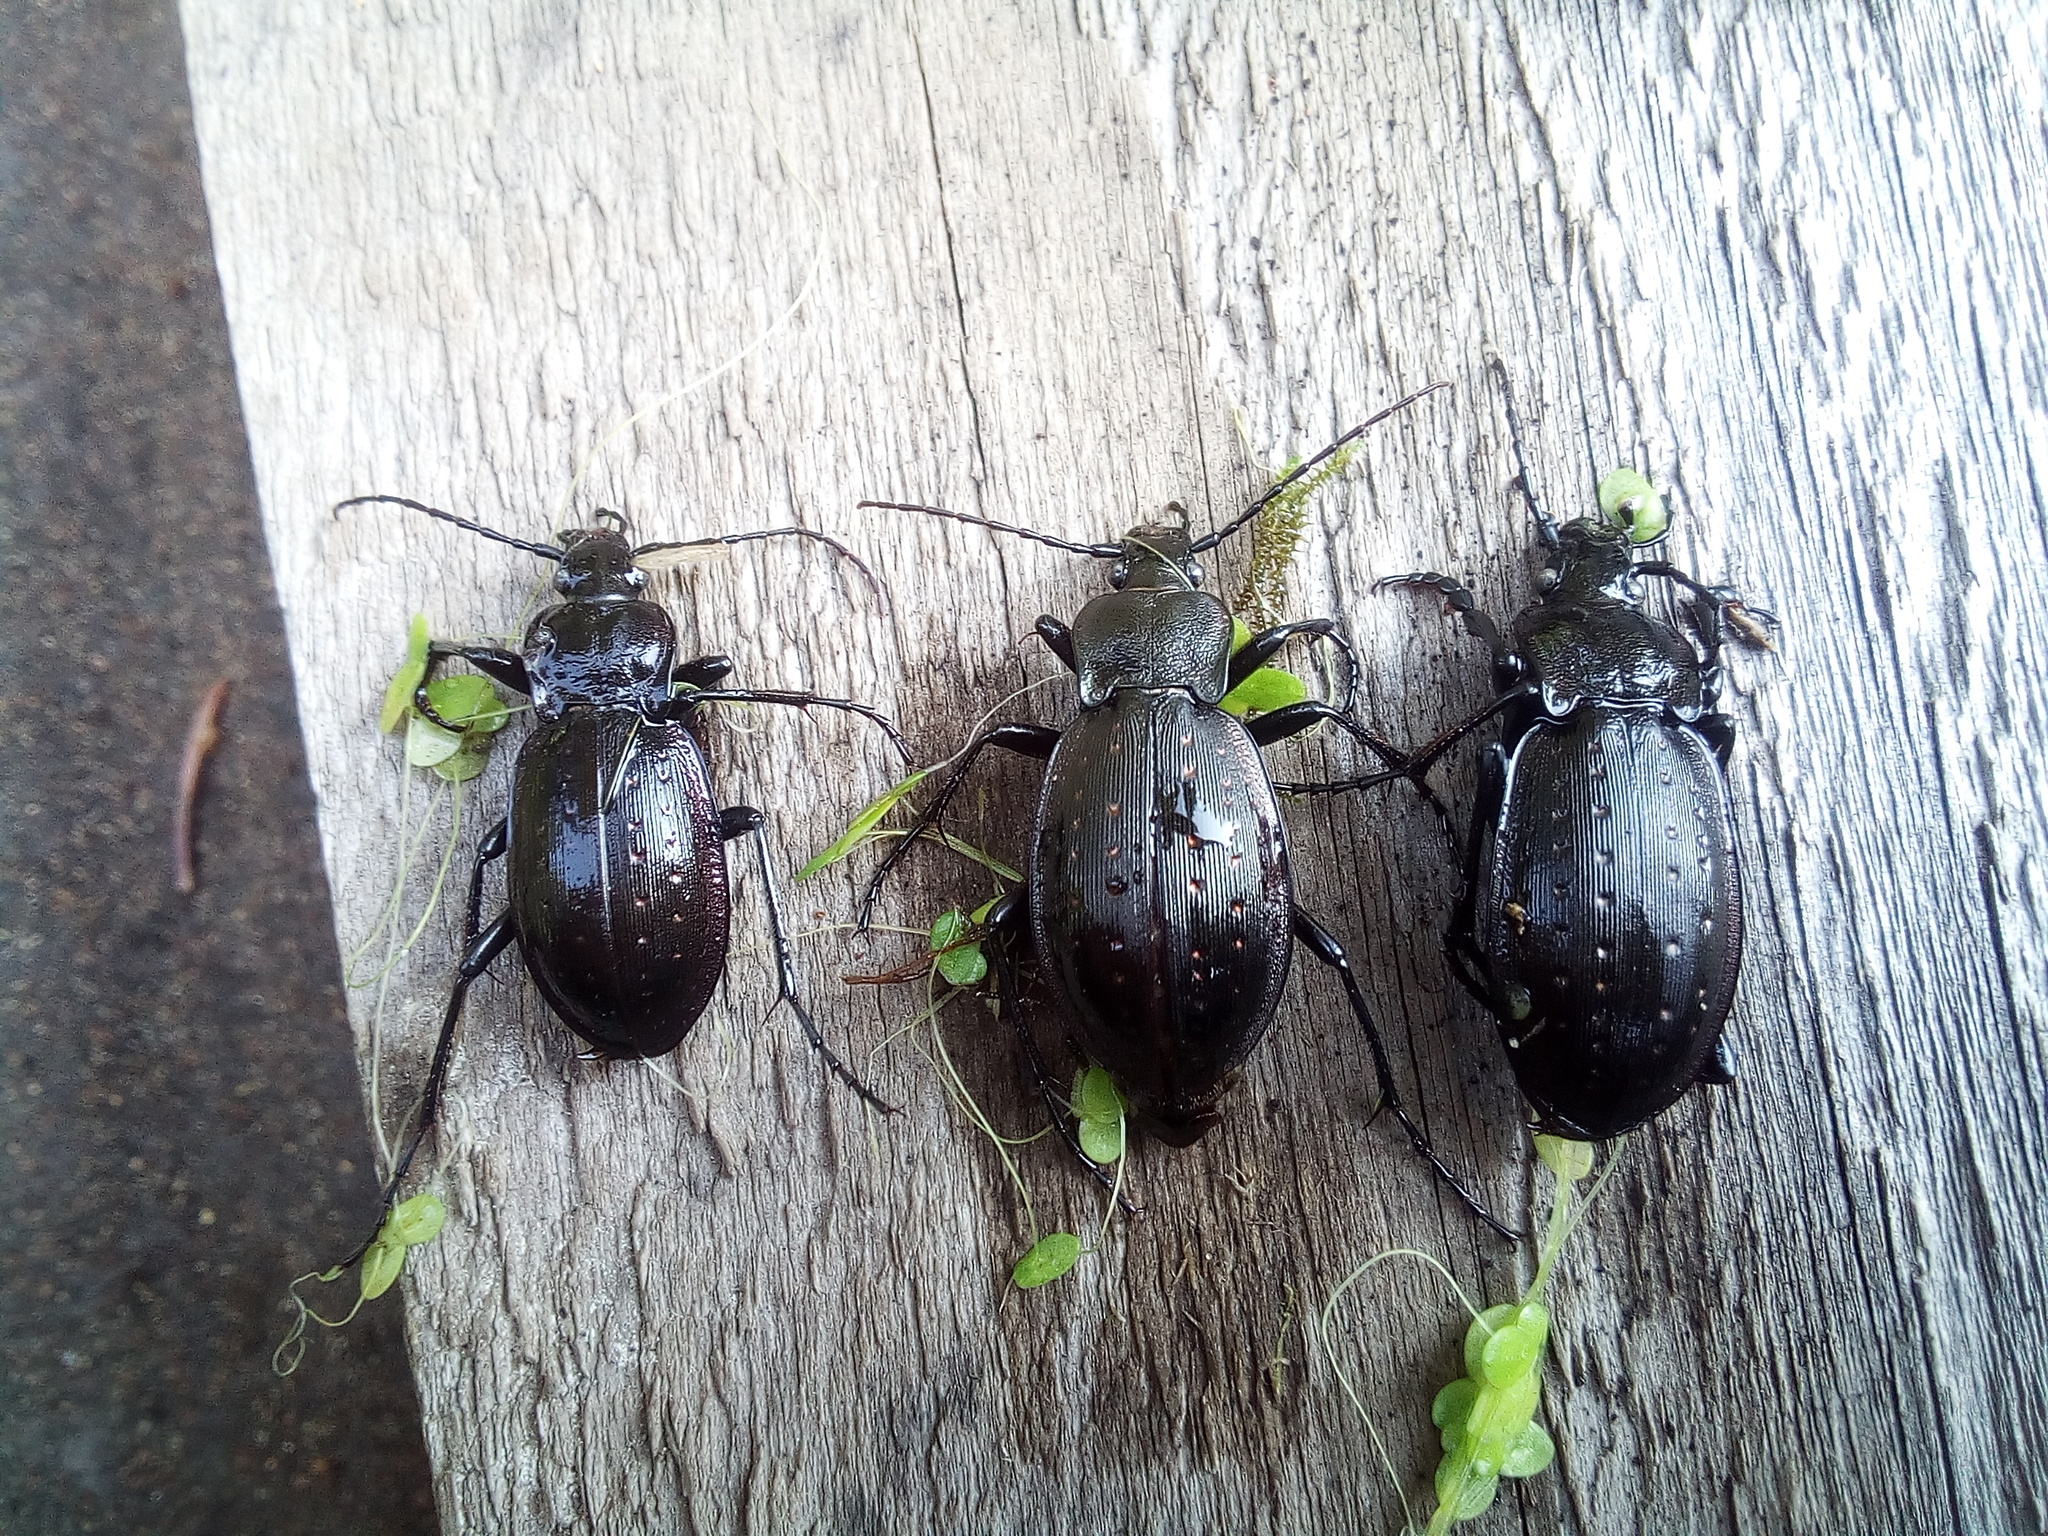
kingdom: Animalia
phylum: Arthropoda
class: Insecta
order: Coleoptera
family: Carabidae
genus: Carabus
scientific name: Carabus hortensis
